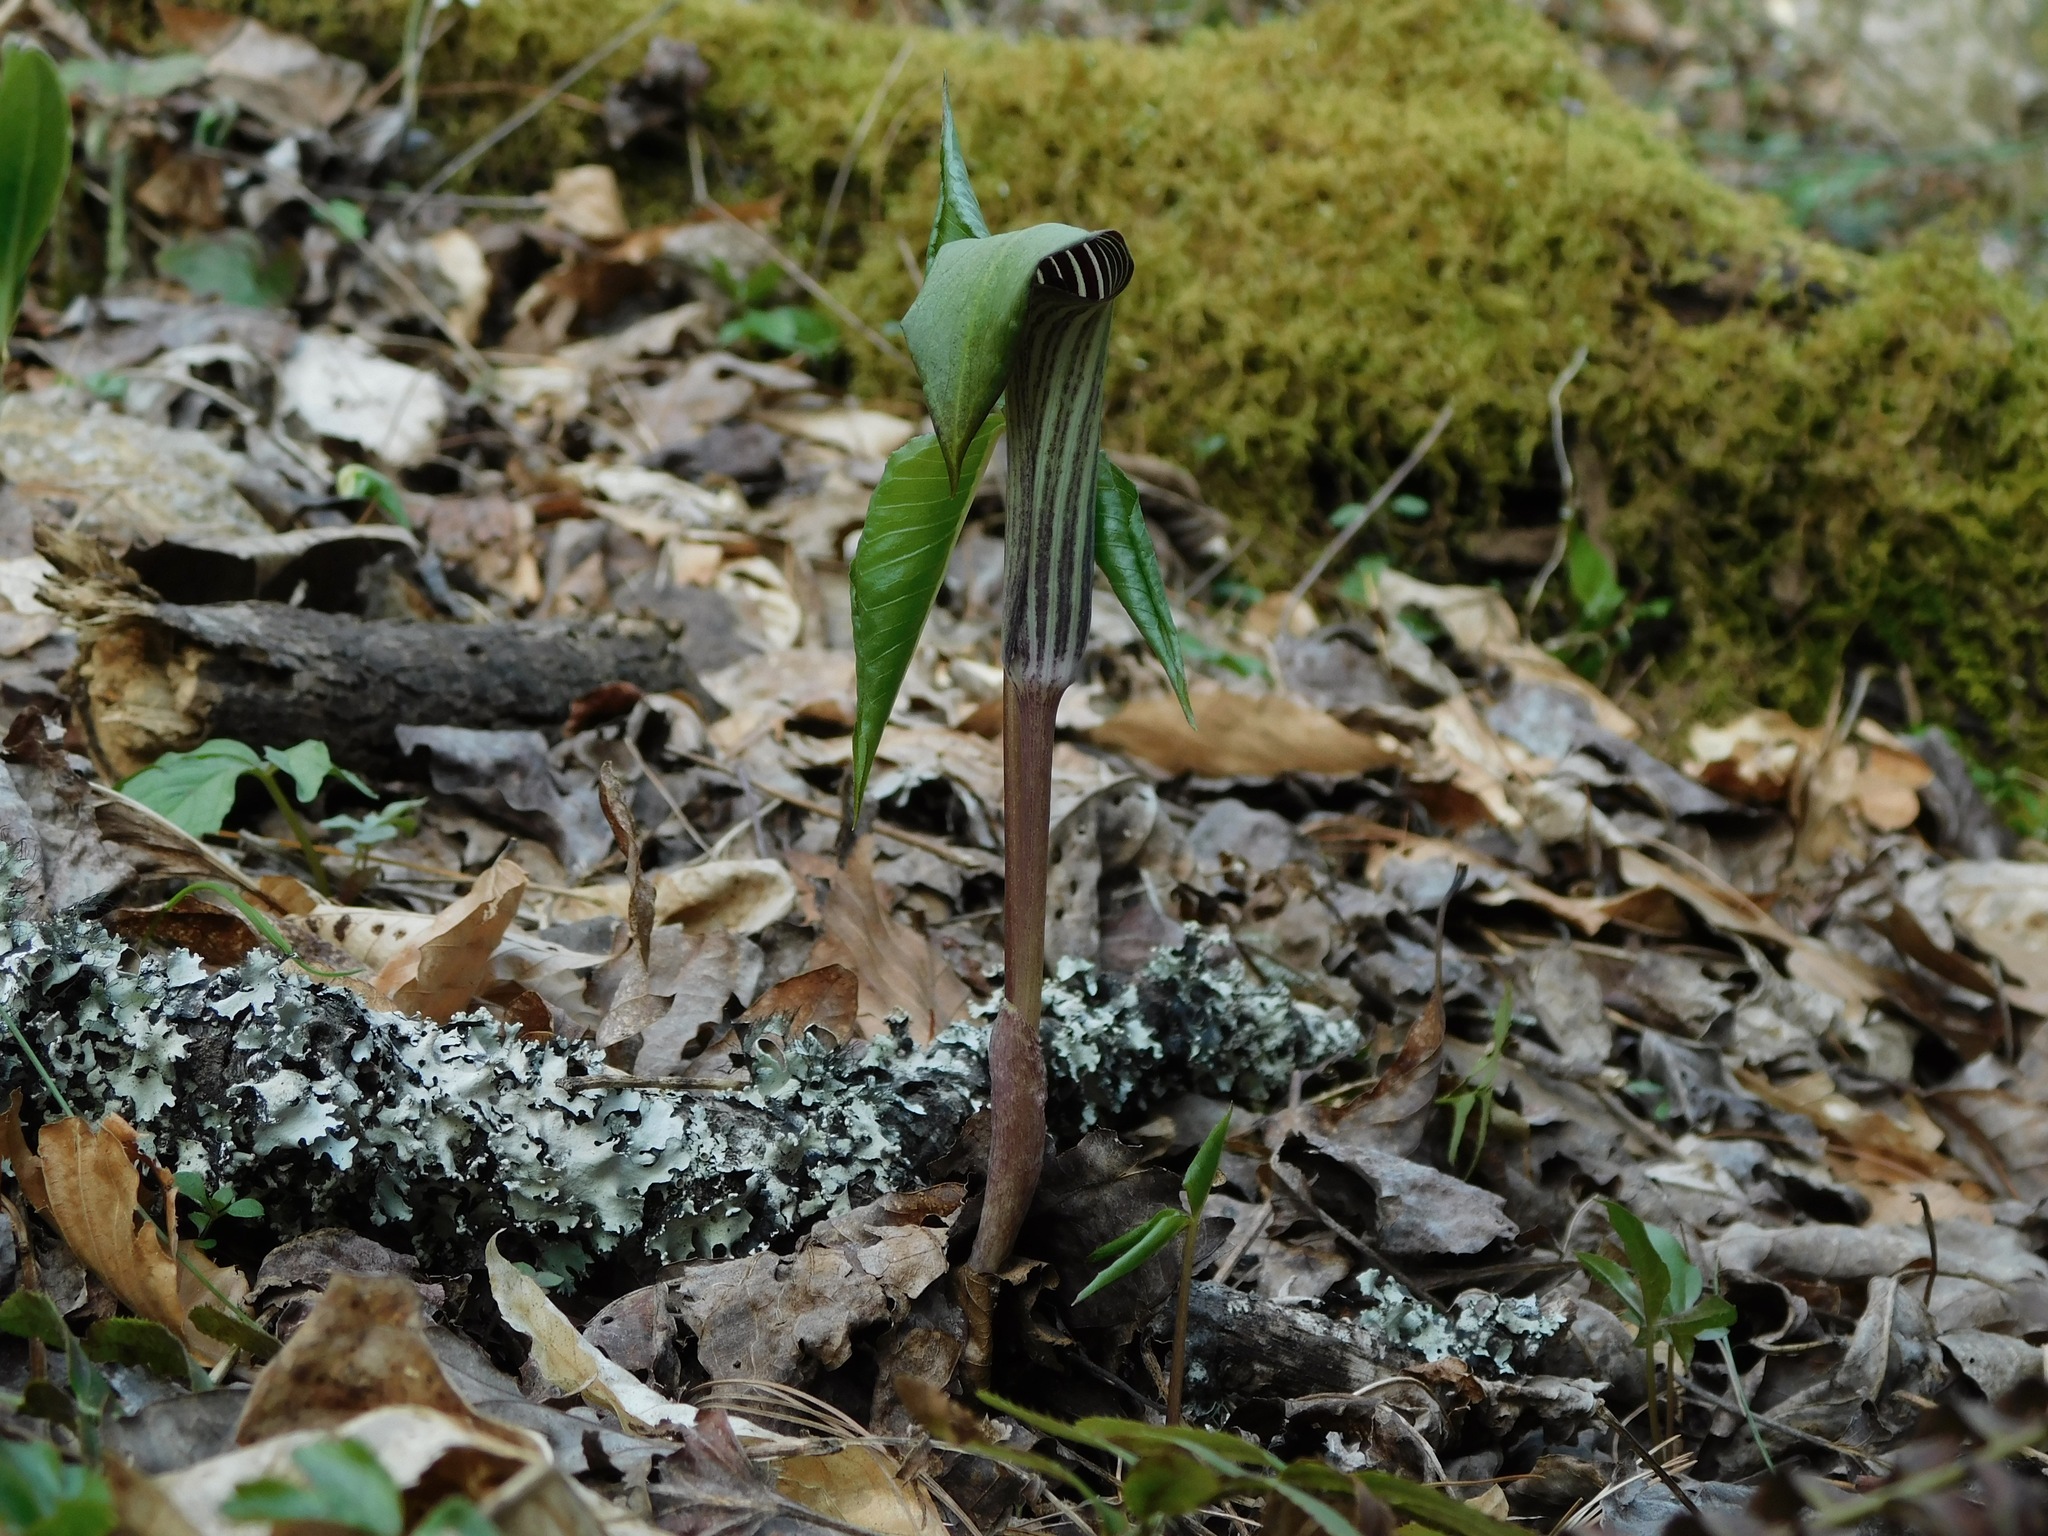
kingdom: Plantae
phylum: Tracheophyta
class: Liliopsida
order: Alismatales
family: Araceae
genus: Arisaema
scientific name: Arisaema triphyllum
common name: Jack-in-the-pulpit
